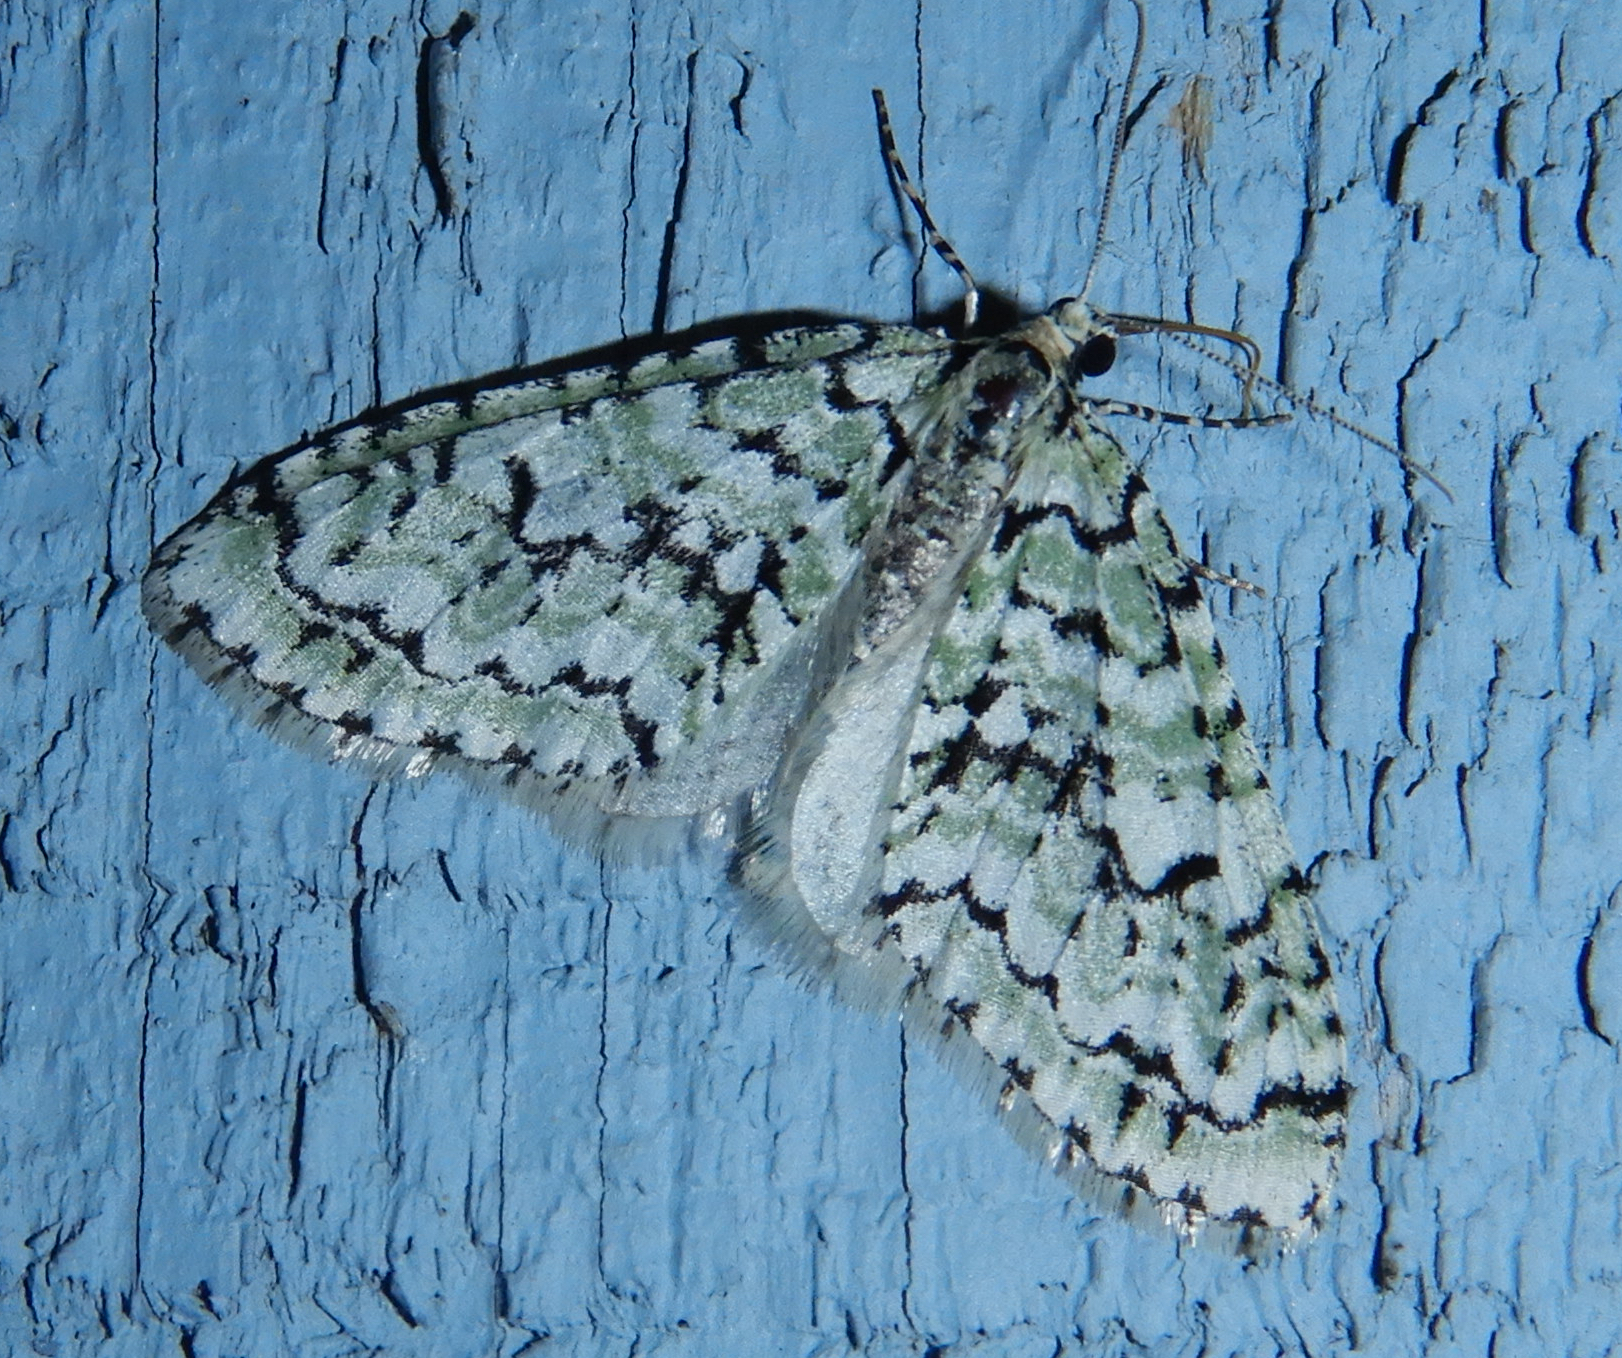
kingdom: Animalia
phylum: Arthropoda
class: Insecta
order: Lepidoptera
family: Geometridae
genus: Cladara
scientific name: Cladara atroliturata
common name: Scribbler
